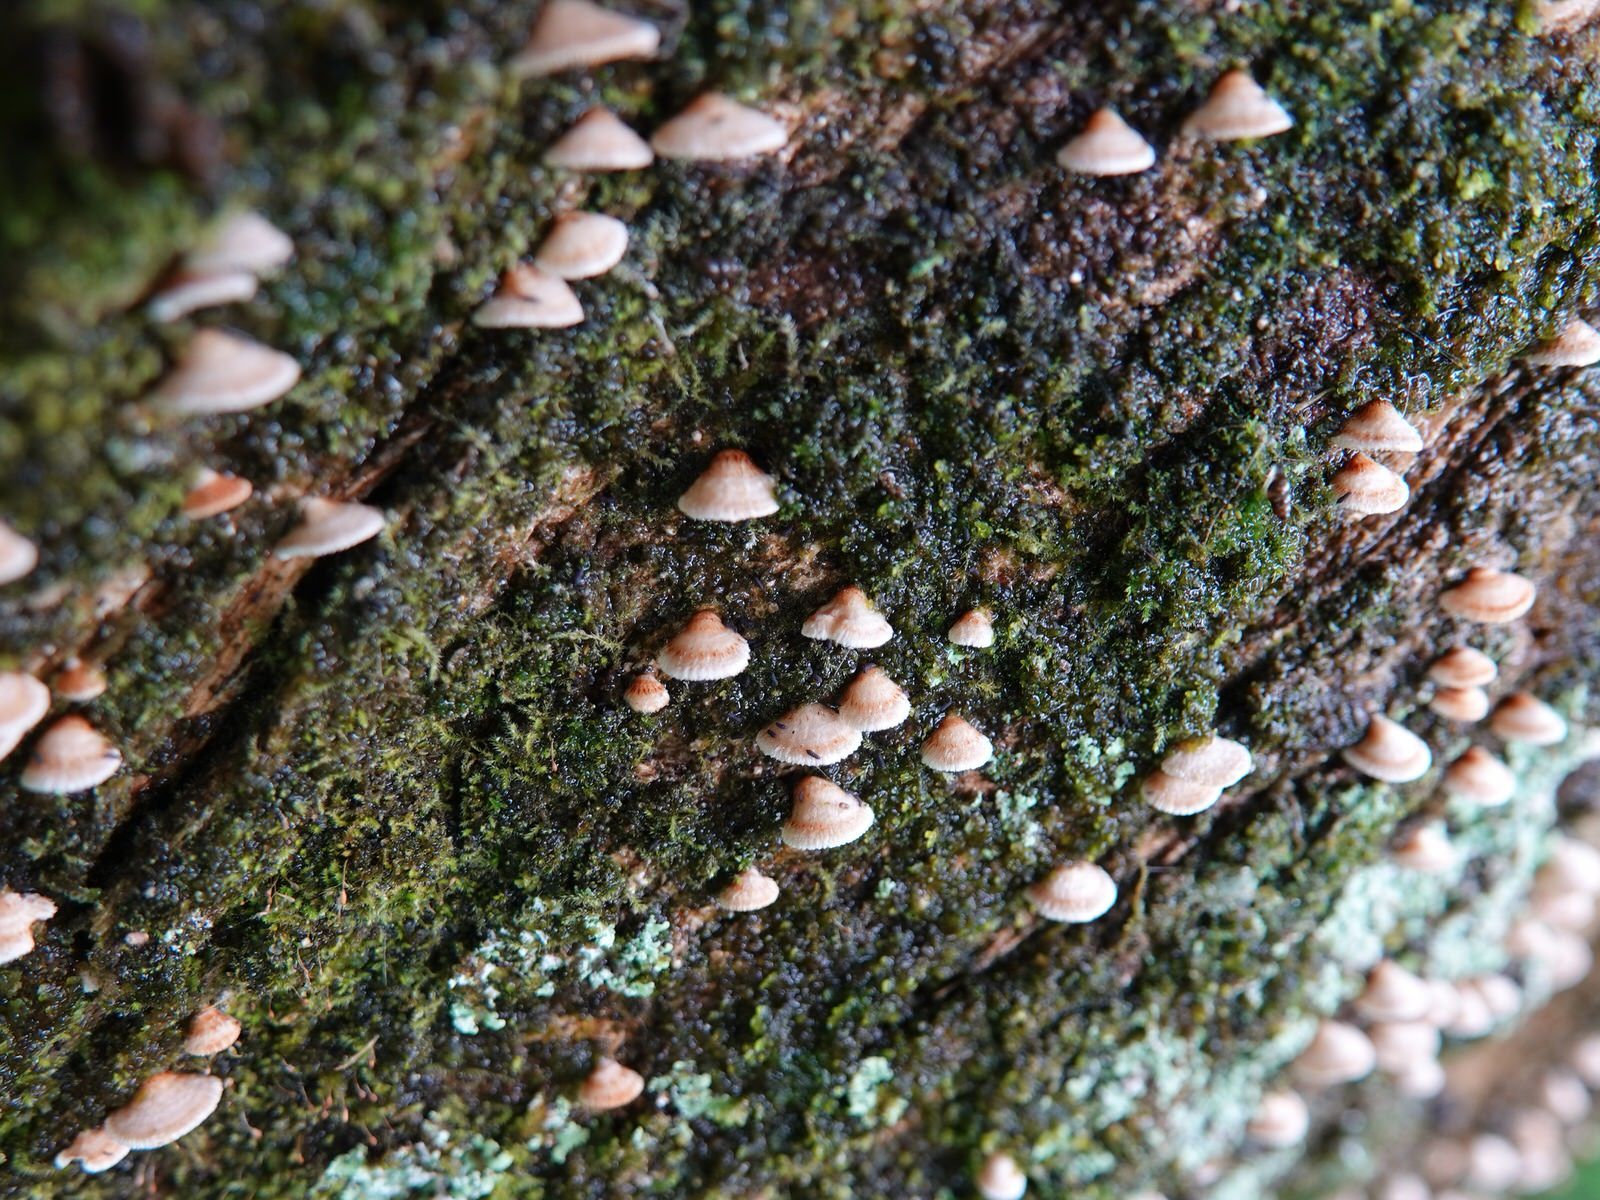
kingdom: Fungi
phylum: Basidiomycota
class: Agaricomycetes
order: Agaricales
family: Marasmiaceae
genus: Chaetocalathus
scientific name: Chaetocalathus cocciformis
